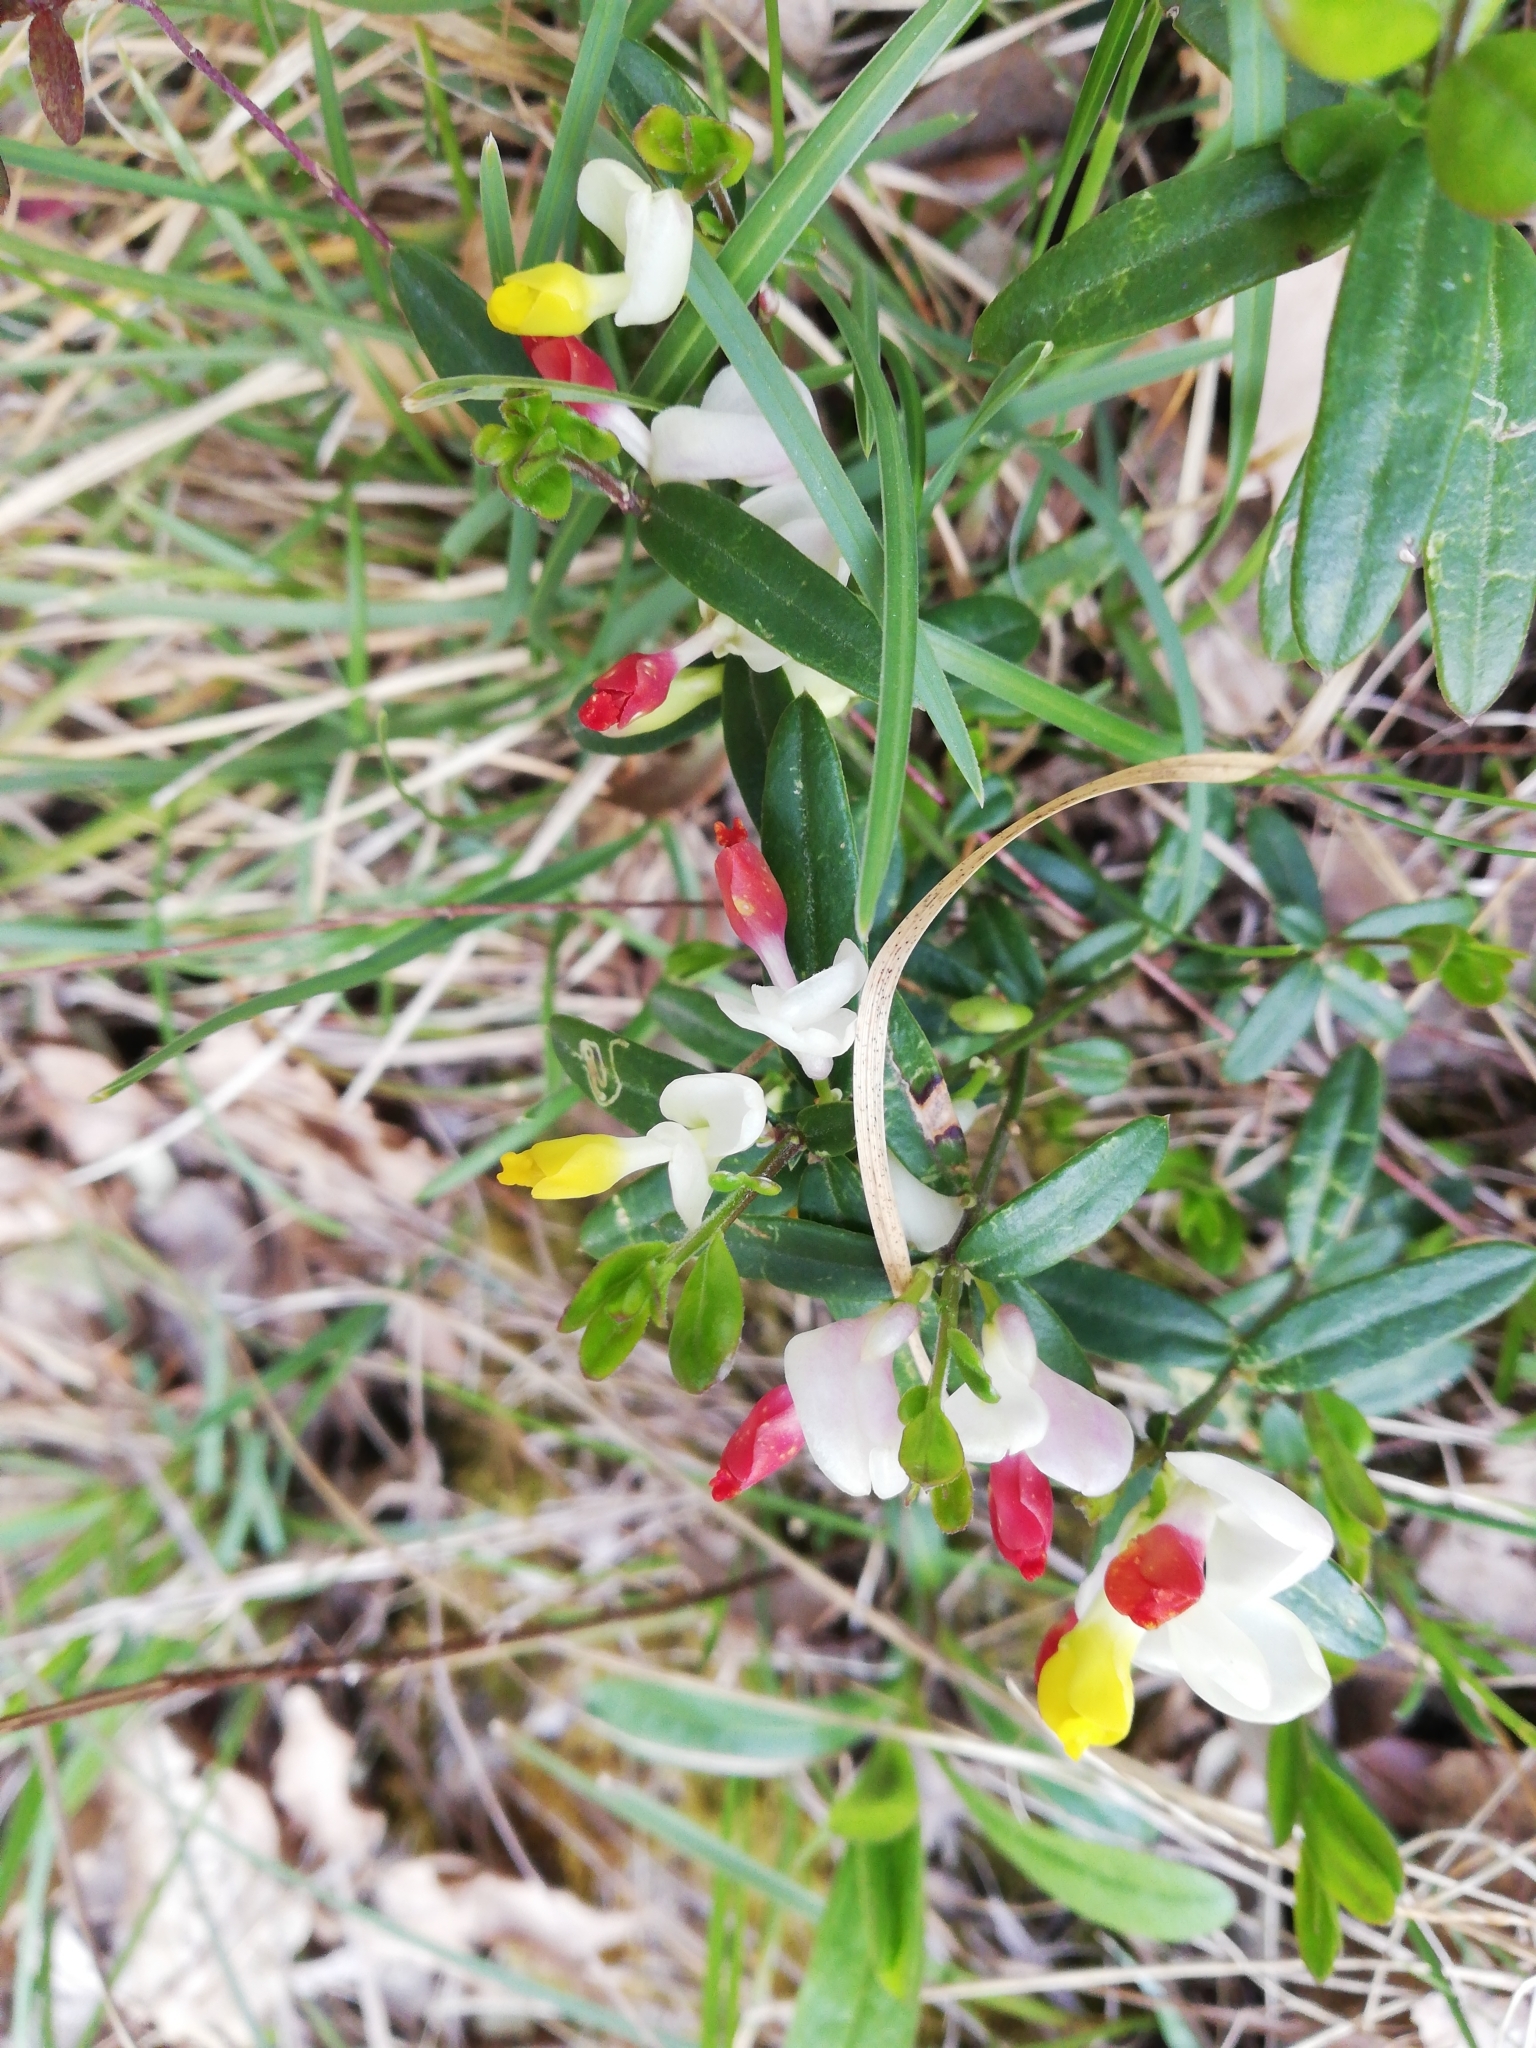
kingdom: Plantae
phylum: Tracheophyta
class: Magnoliopsida
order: Fabales
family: Polygalaceae
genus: Polygaloides
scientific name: Polygaloides chamaebuxus
